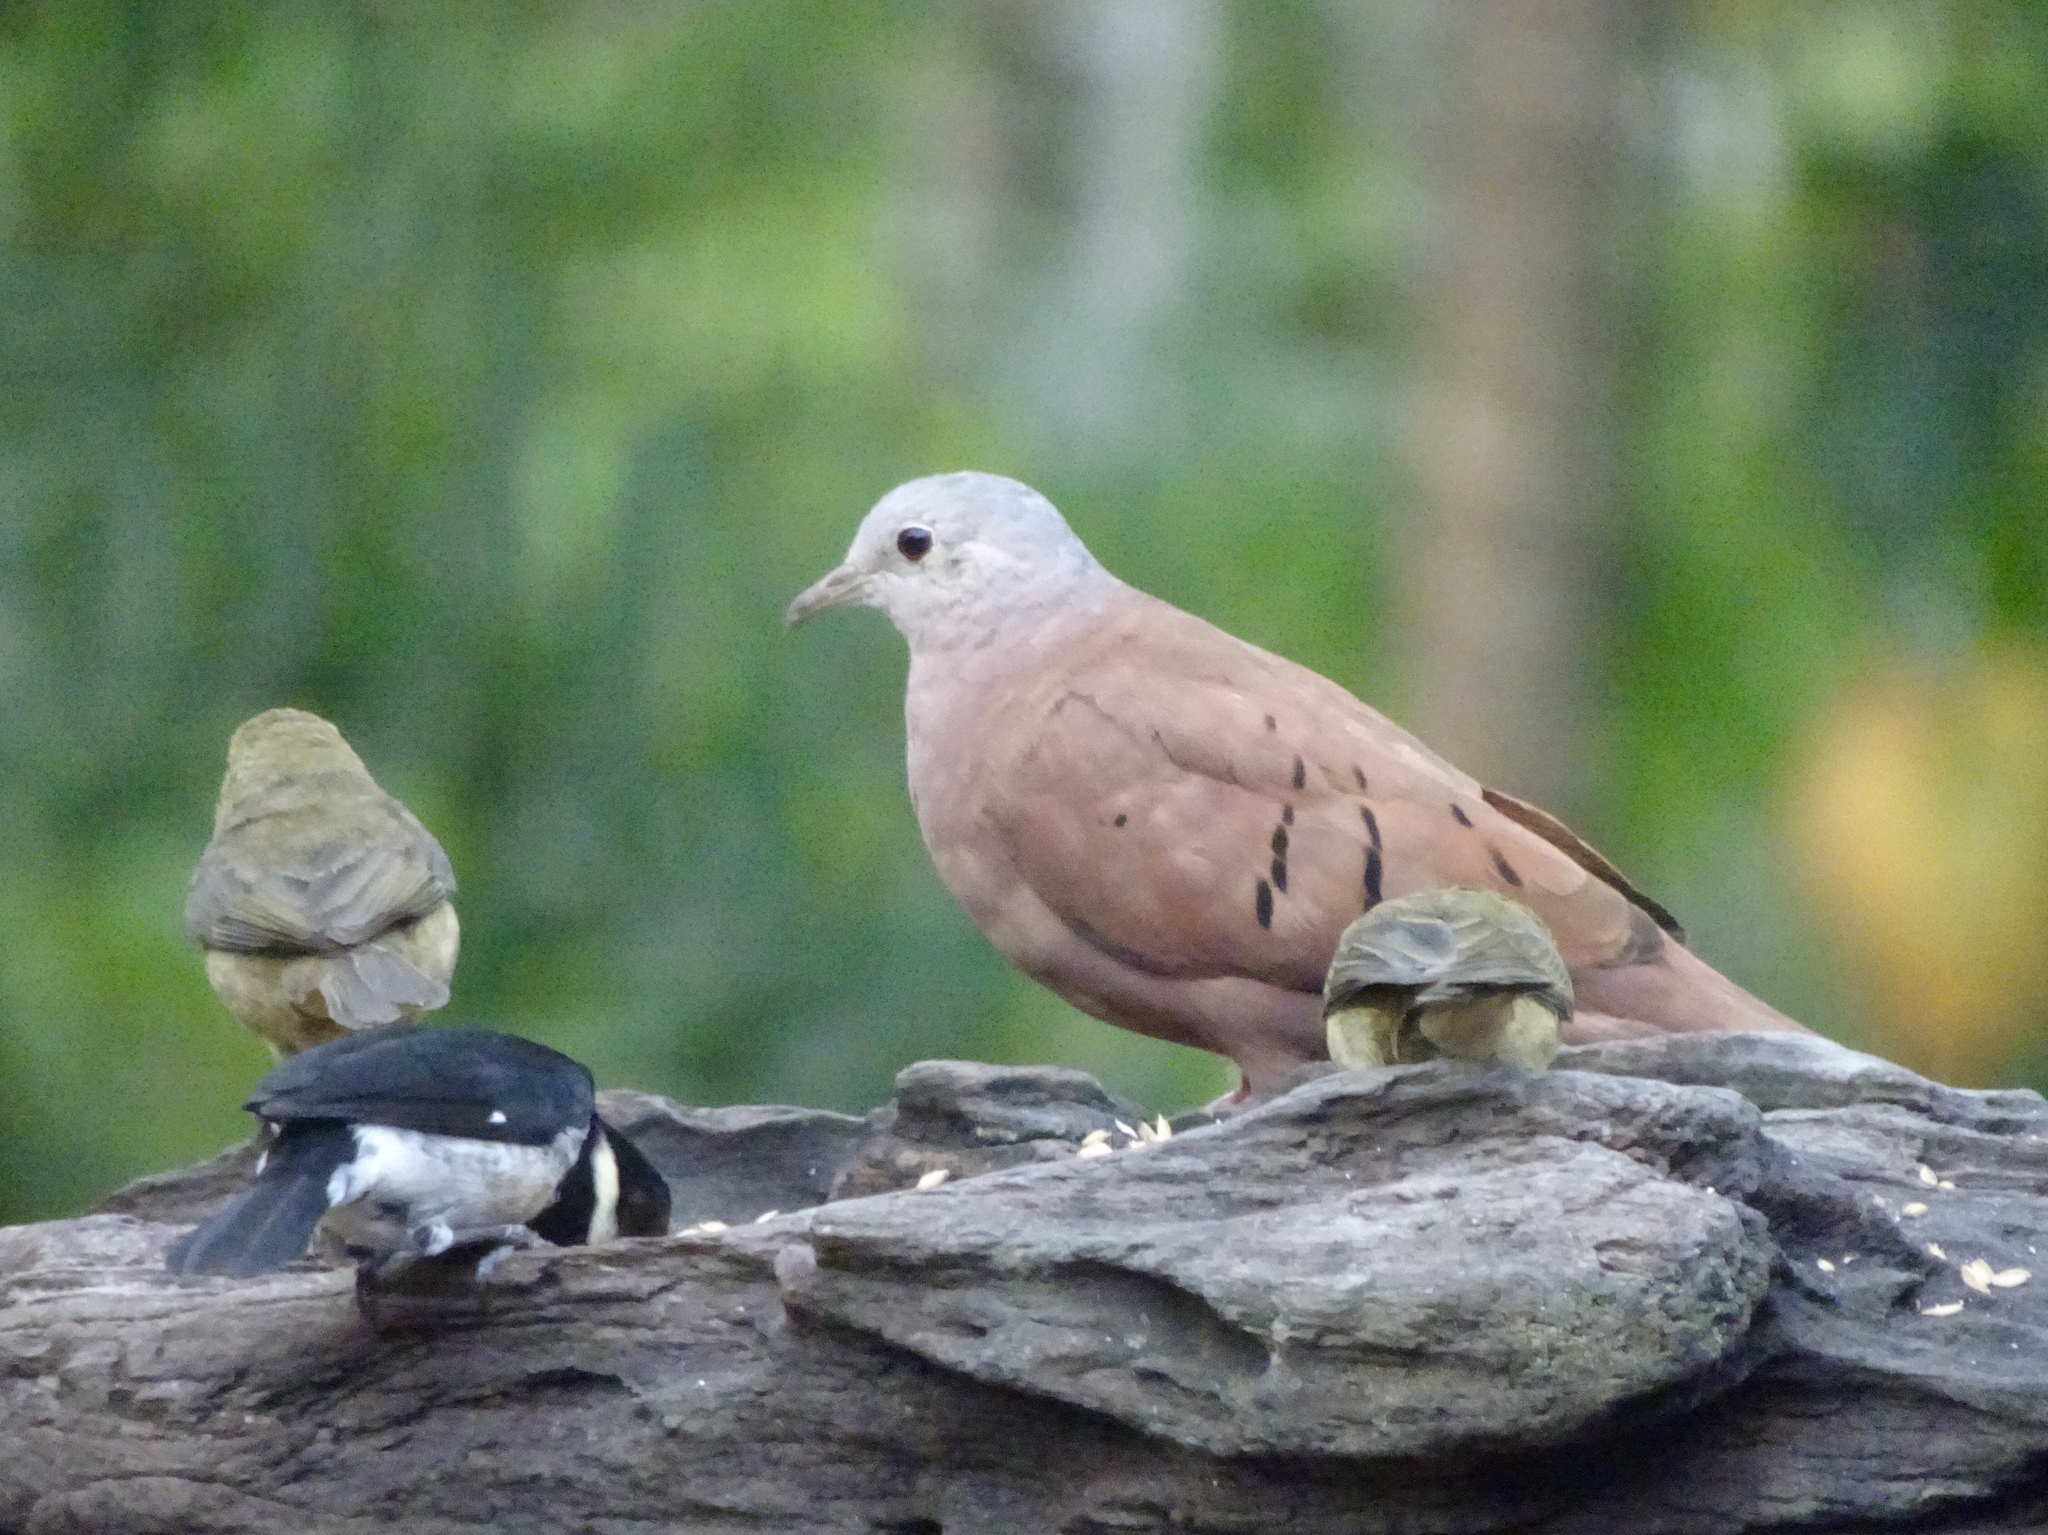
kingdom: Animalia
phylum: Chordata
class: Aves
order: Columbiformes
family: Columbidae
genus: Columbina
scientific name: Columbina talpacoti
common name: Ruddy ground dove
